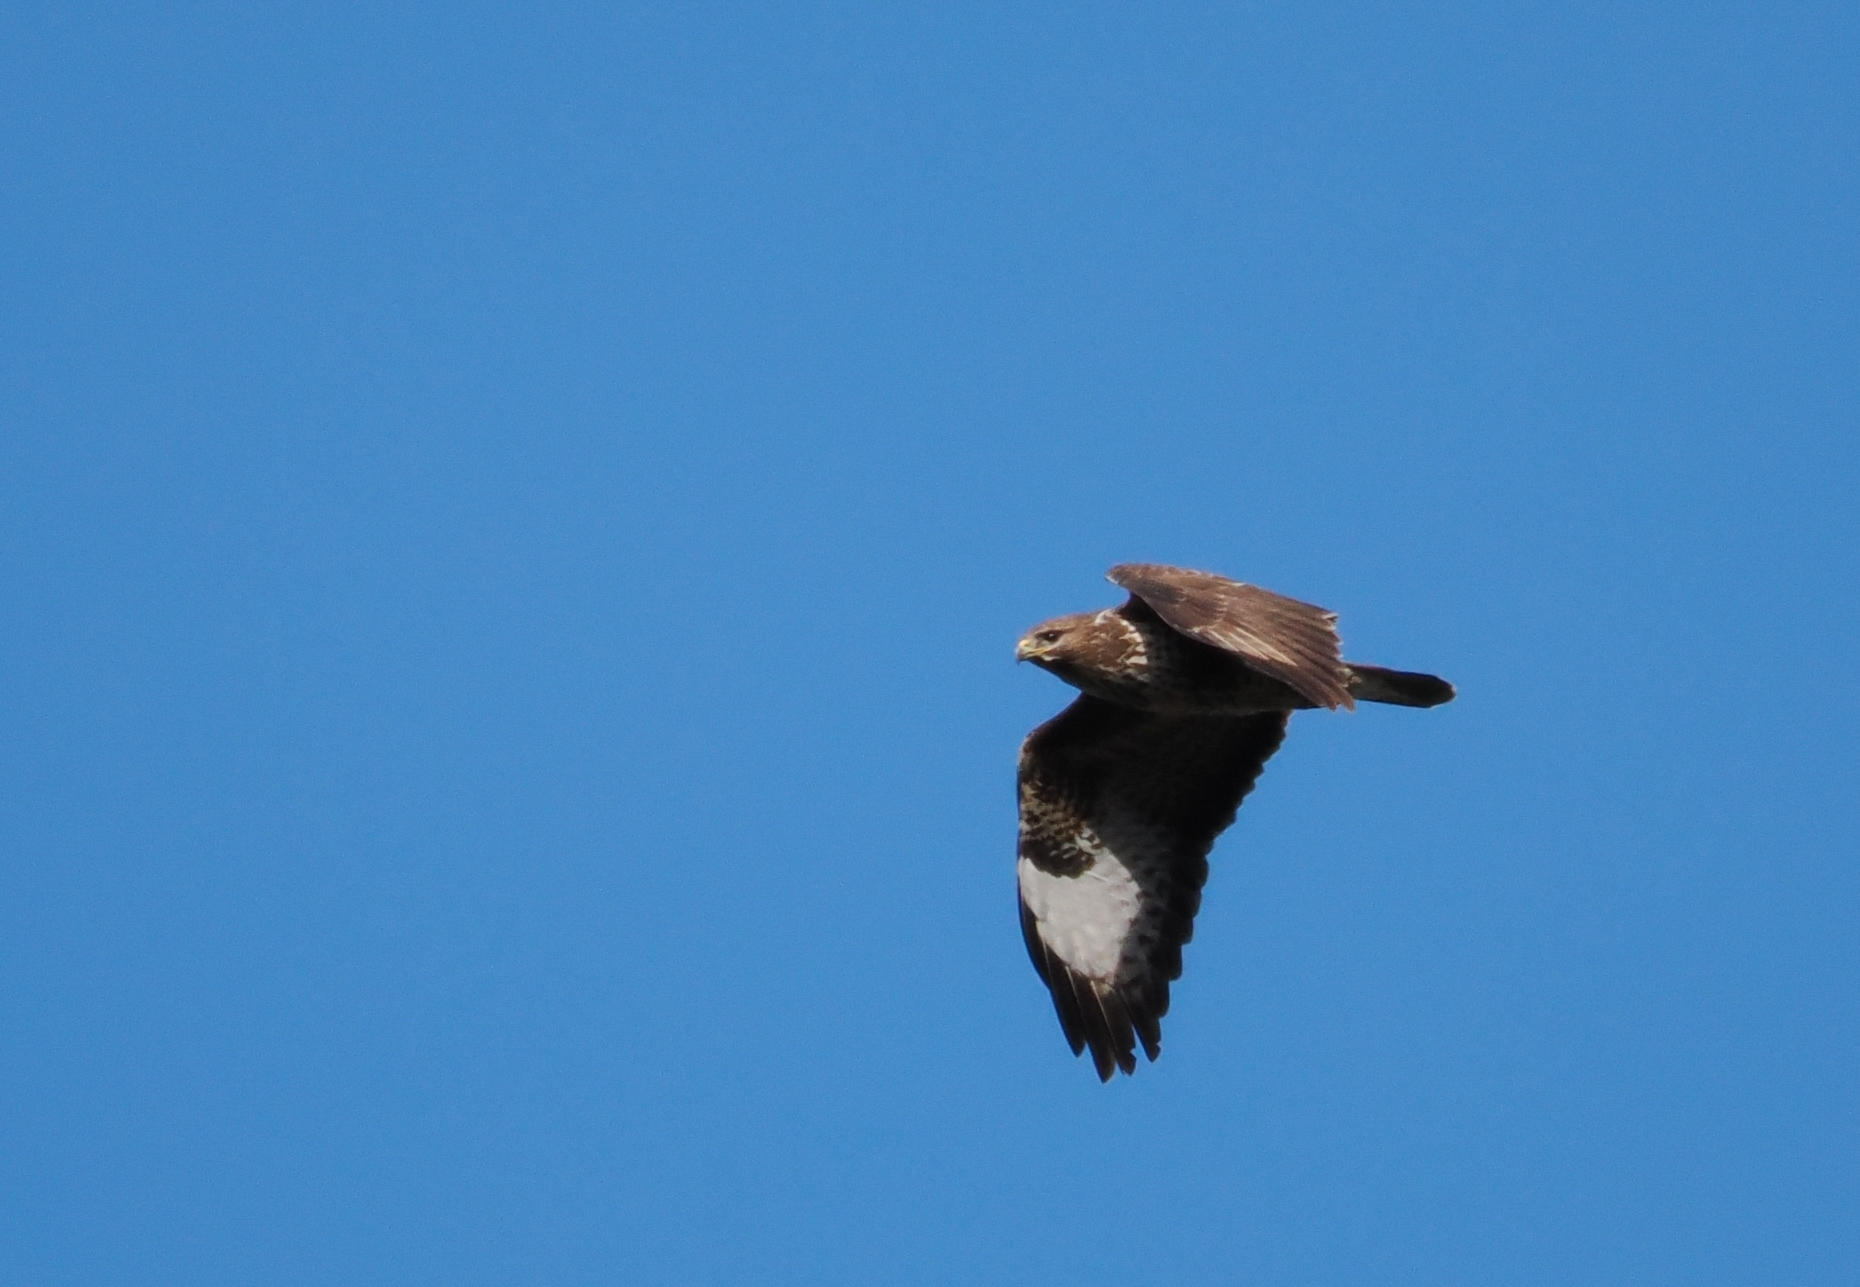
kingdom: Animalia
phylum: Chordata
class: Aves
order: Accipitriformes
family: Accipitridae
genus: Buteo
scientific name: Buteo buteo
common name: Common buzzard
